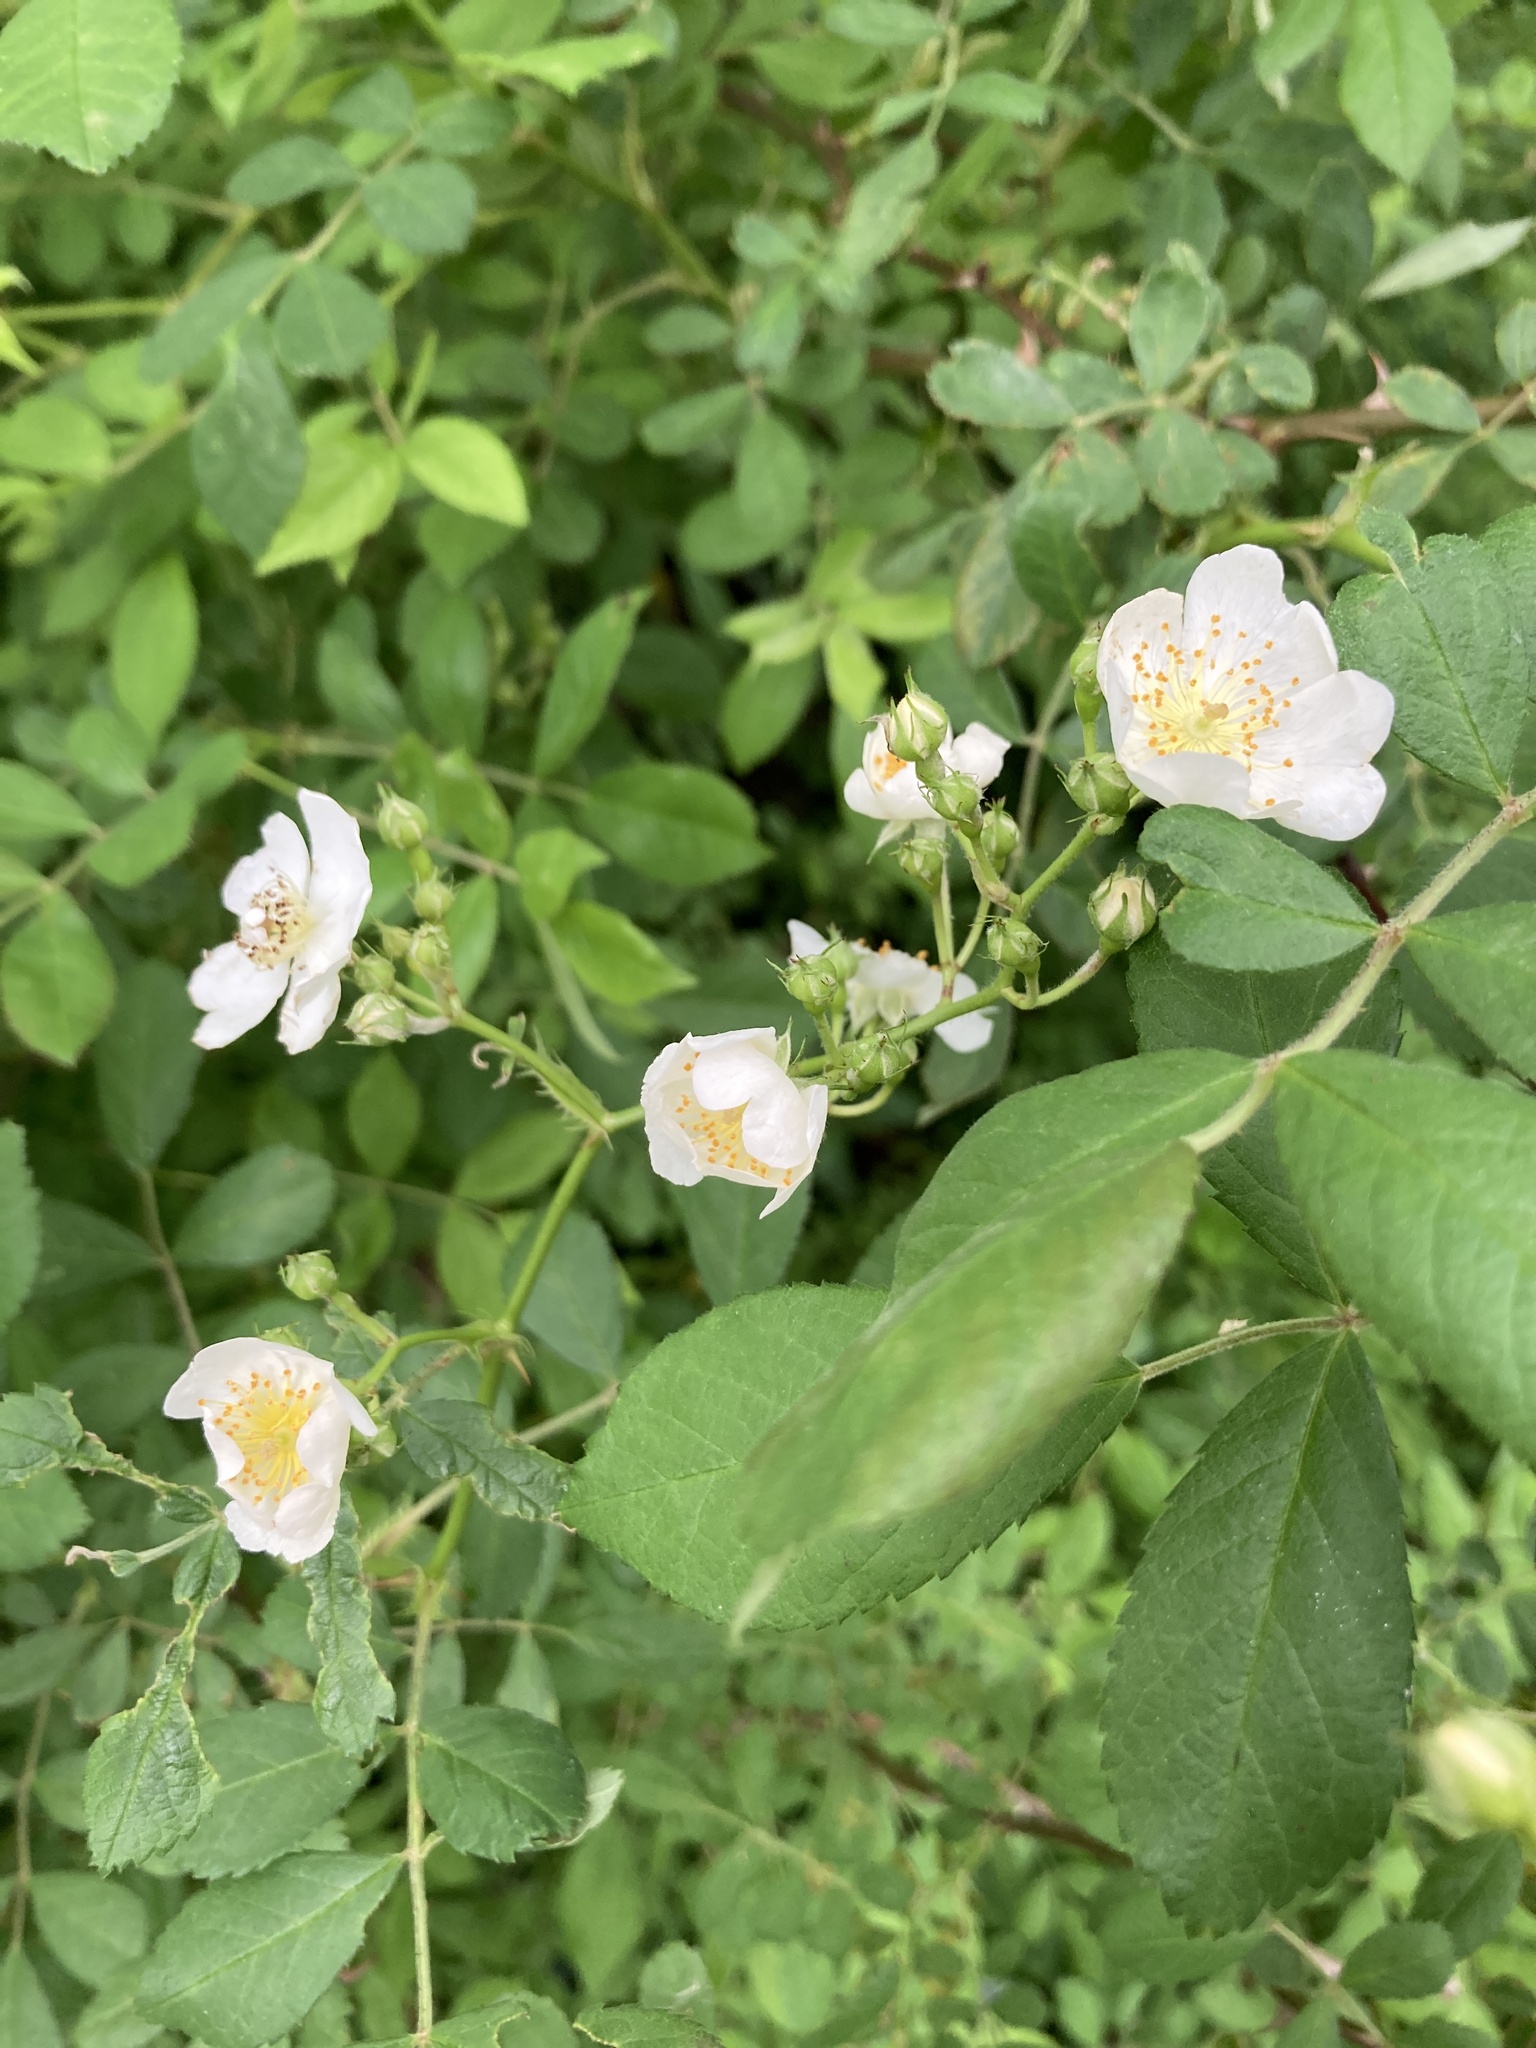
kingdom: Plantae
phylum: Tracheophyta
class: Magnoliopsida
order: Rosales
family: Rosaceae
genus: Rosa
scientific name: Rosa multiflora
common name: Multiflora rose
